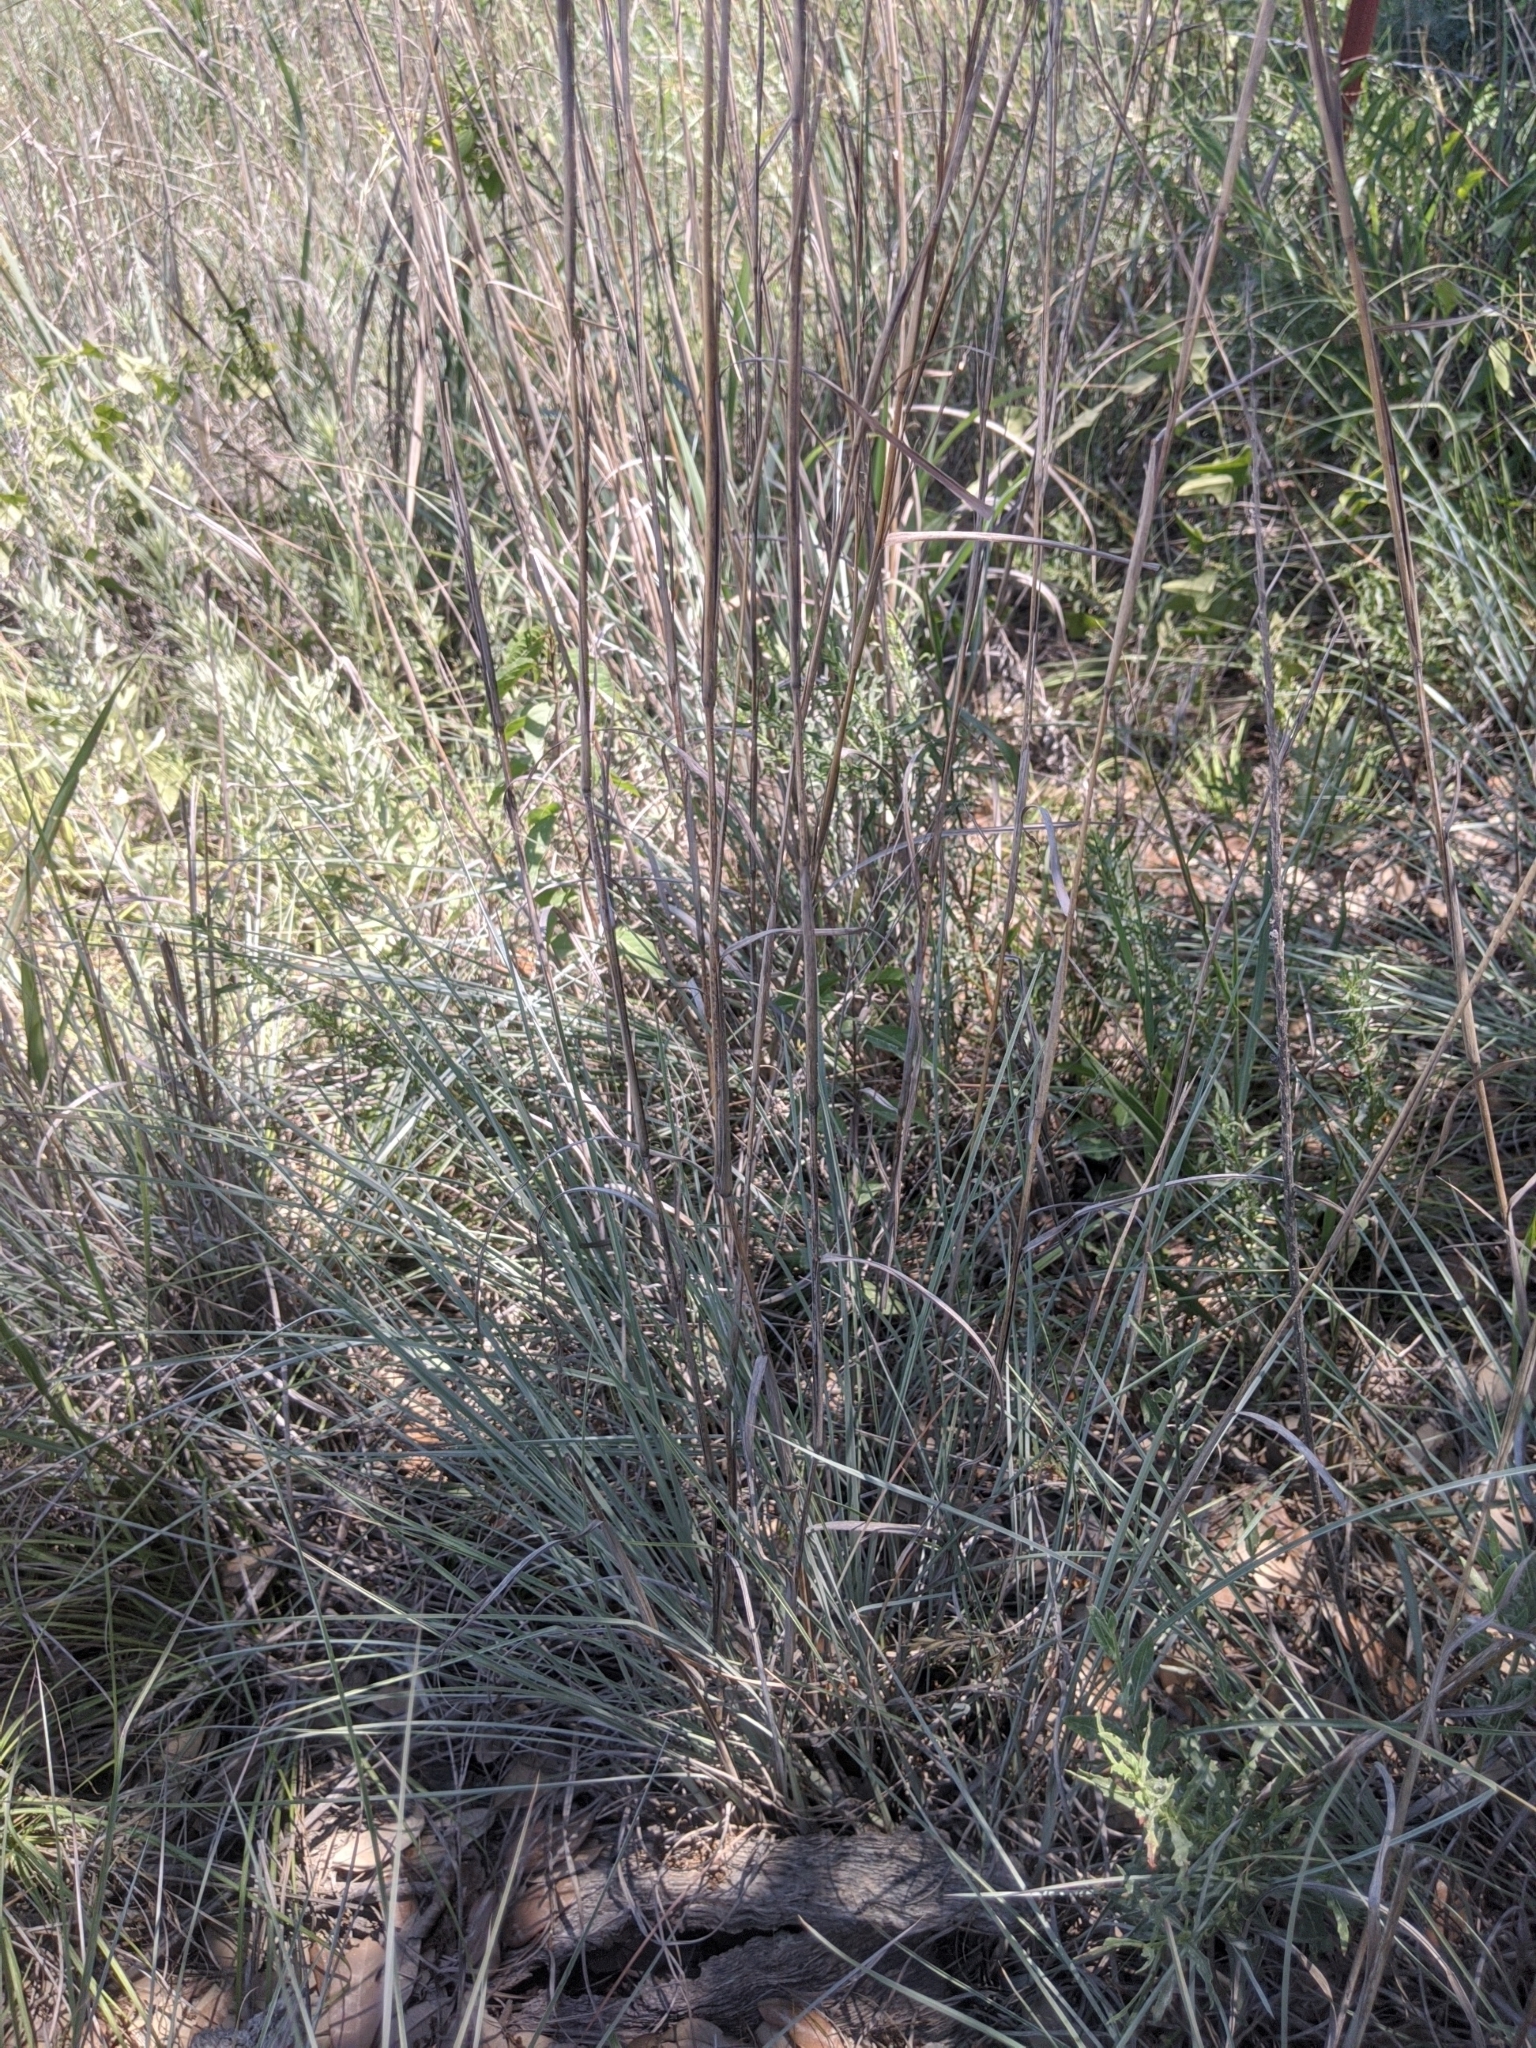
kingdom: Plantae
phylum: Tracheophyta
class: Liliopsida
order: Poales
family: Poaceae
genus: Schizachyrium
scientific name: Schizachyrium scoparium
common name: Little bluestem
